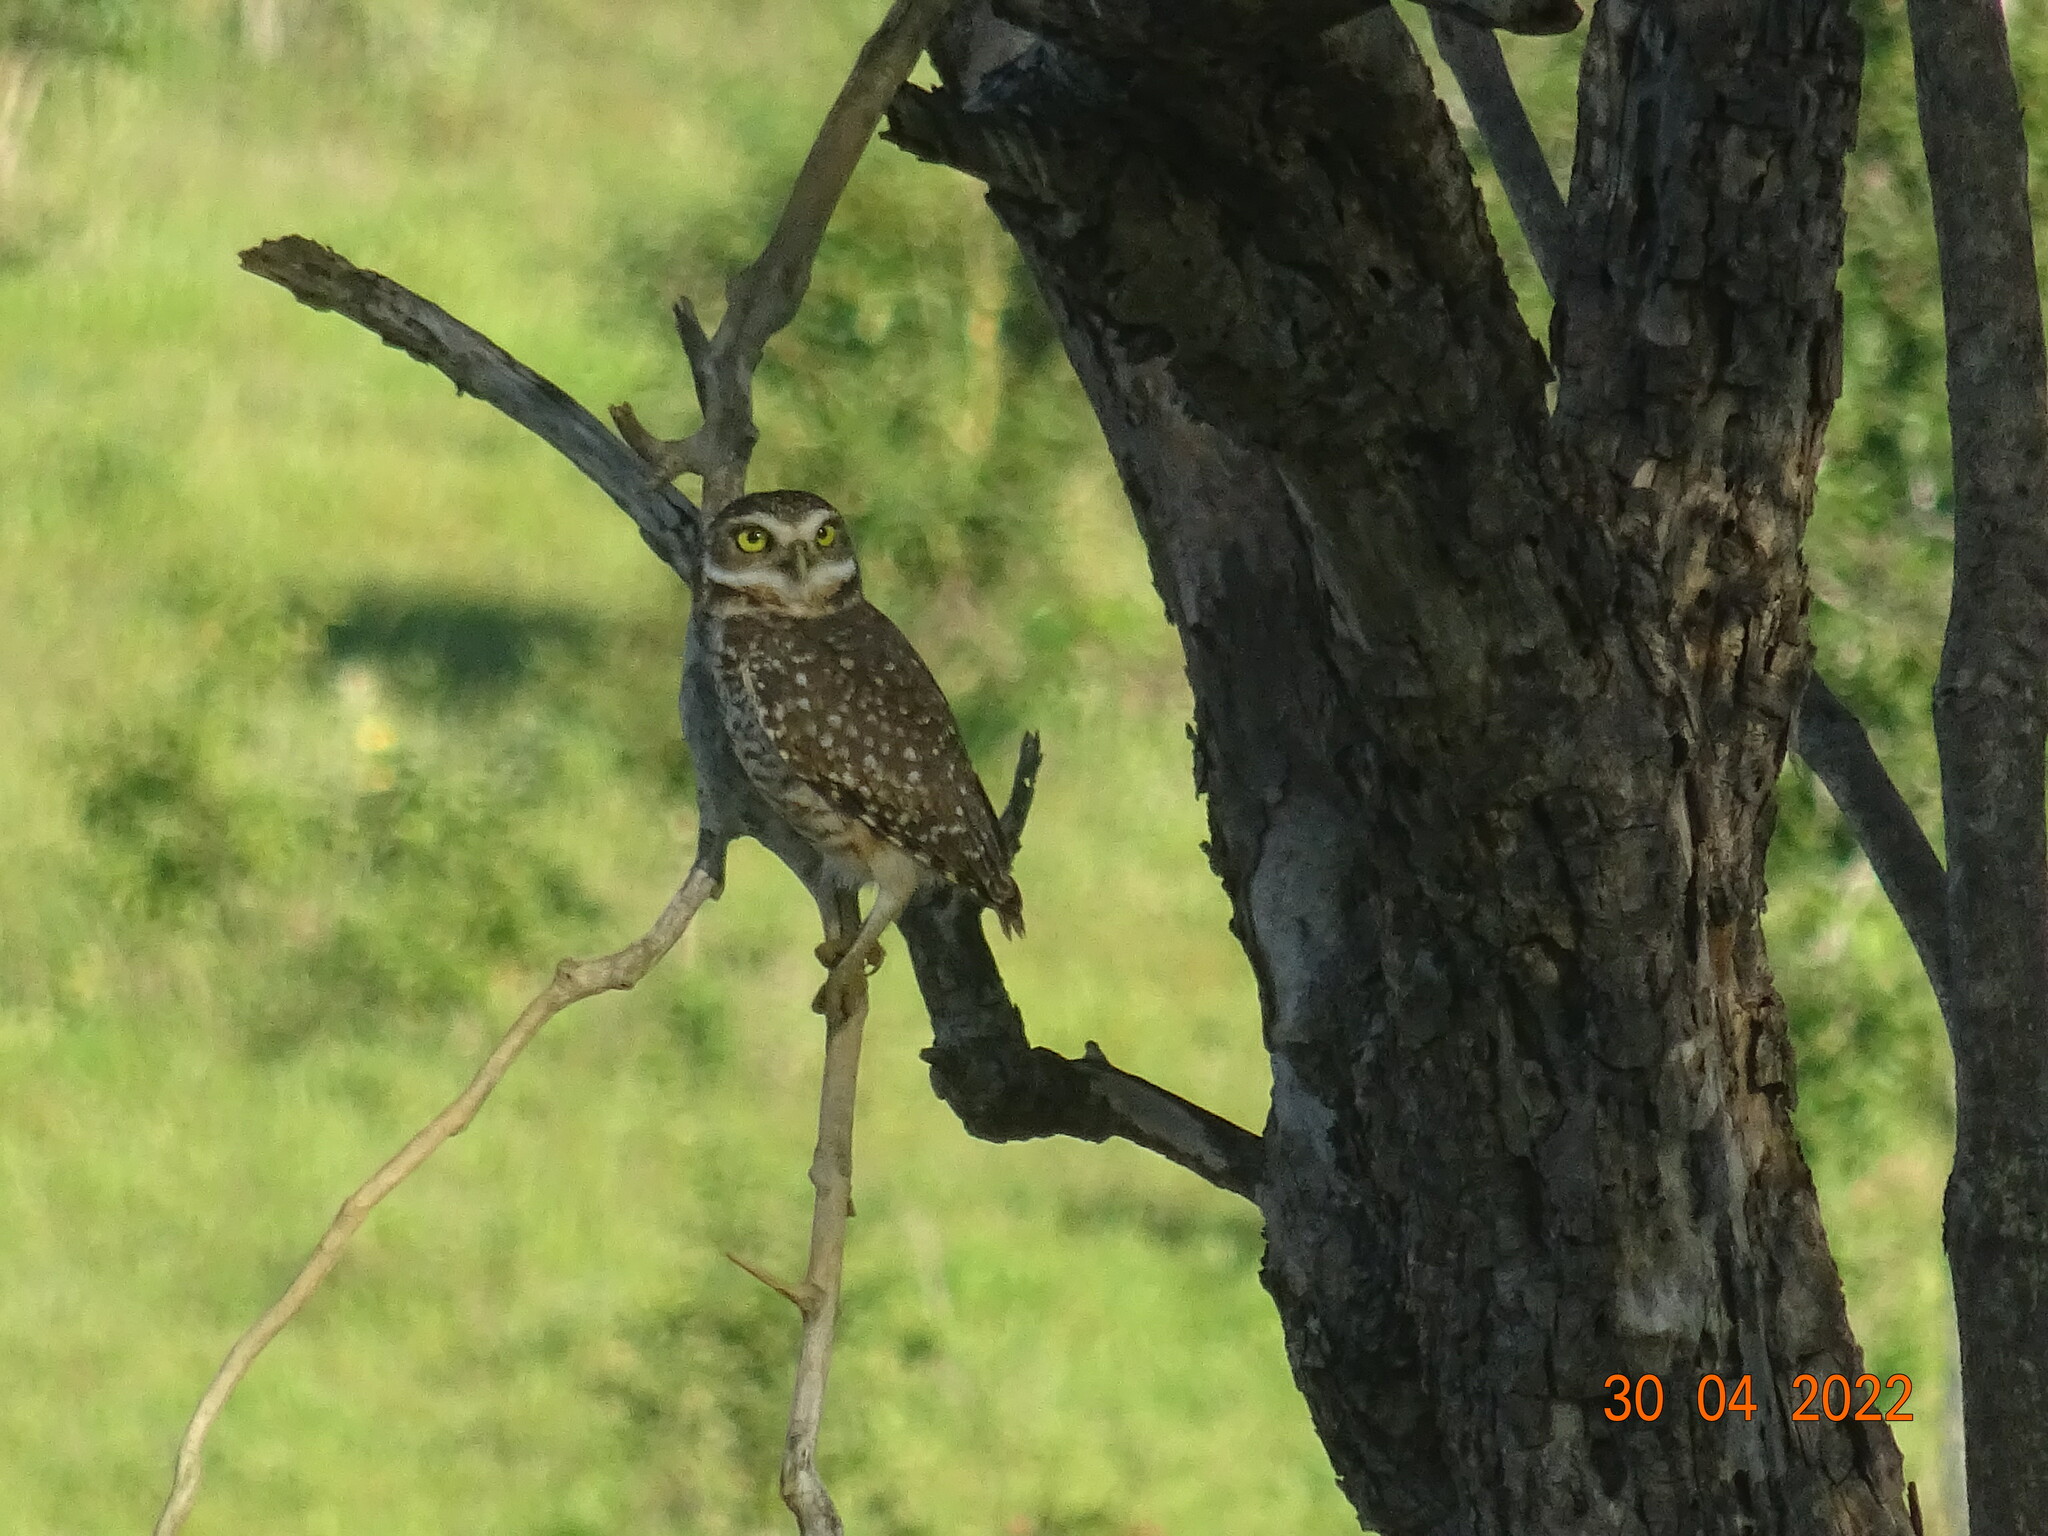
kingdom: Animalia
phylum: Chordata
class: Aves
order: Strigiformes
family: Strigidae
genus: Athene
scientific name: Athene cunicularia
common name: Burrowing owl
